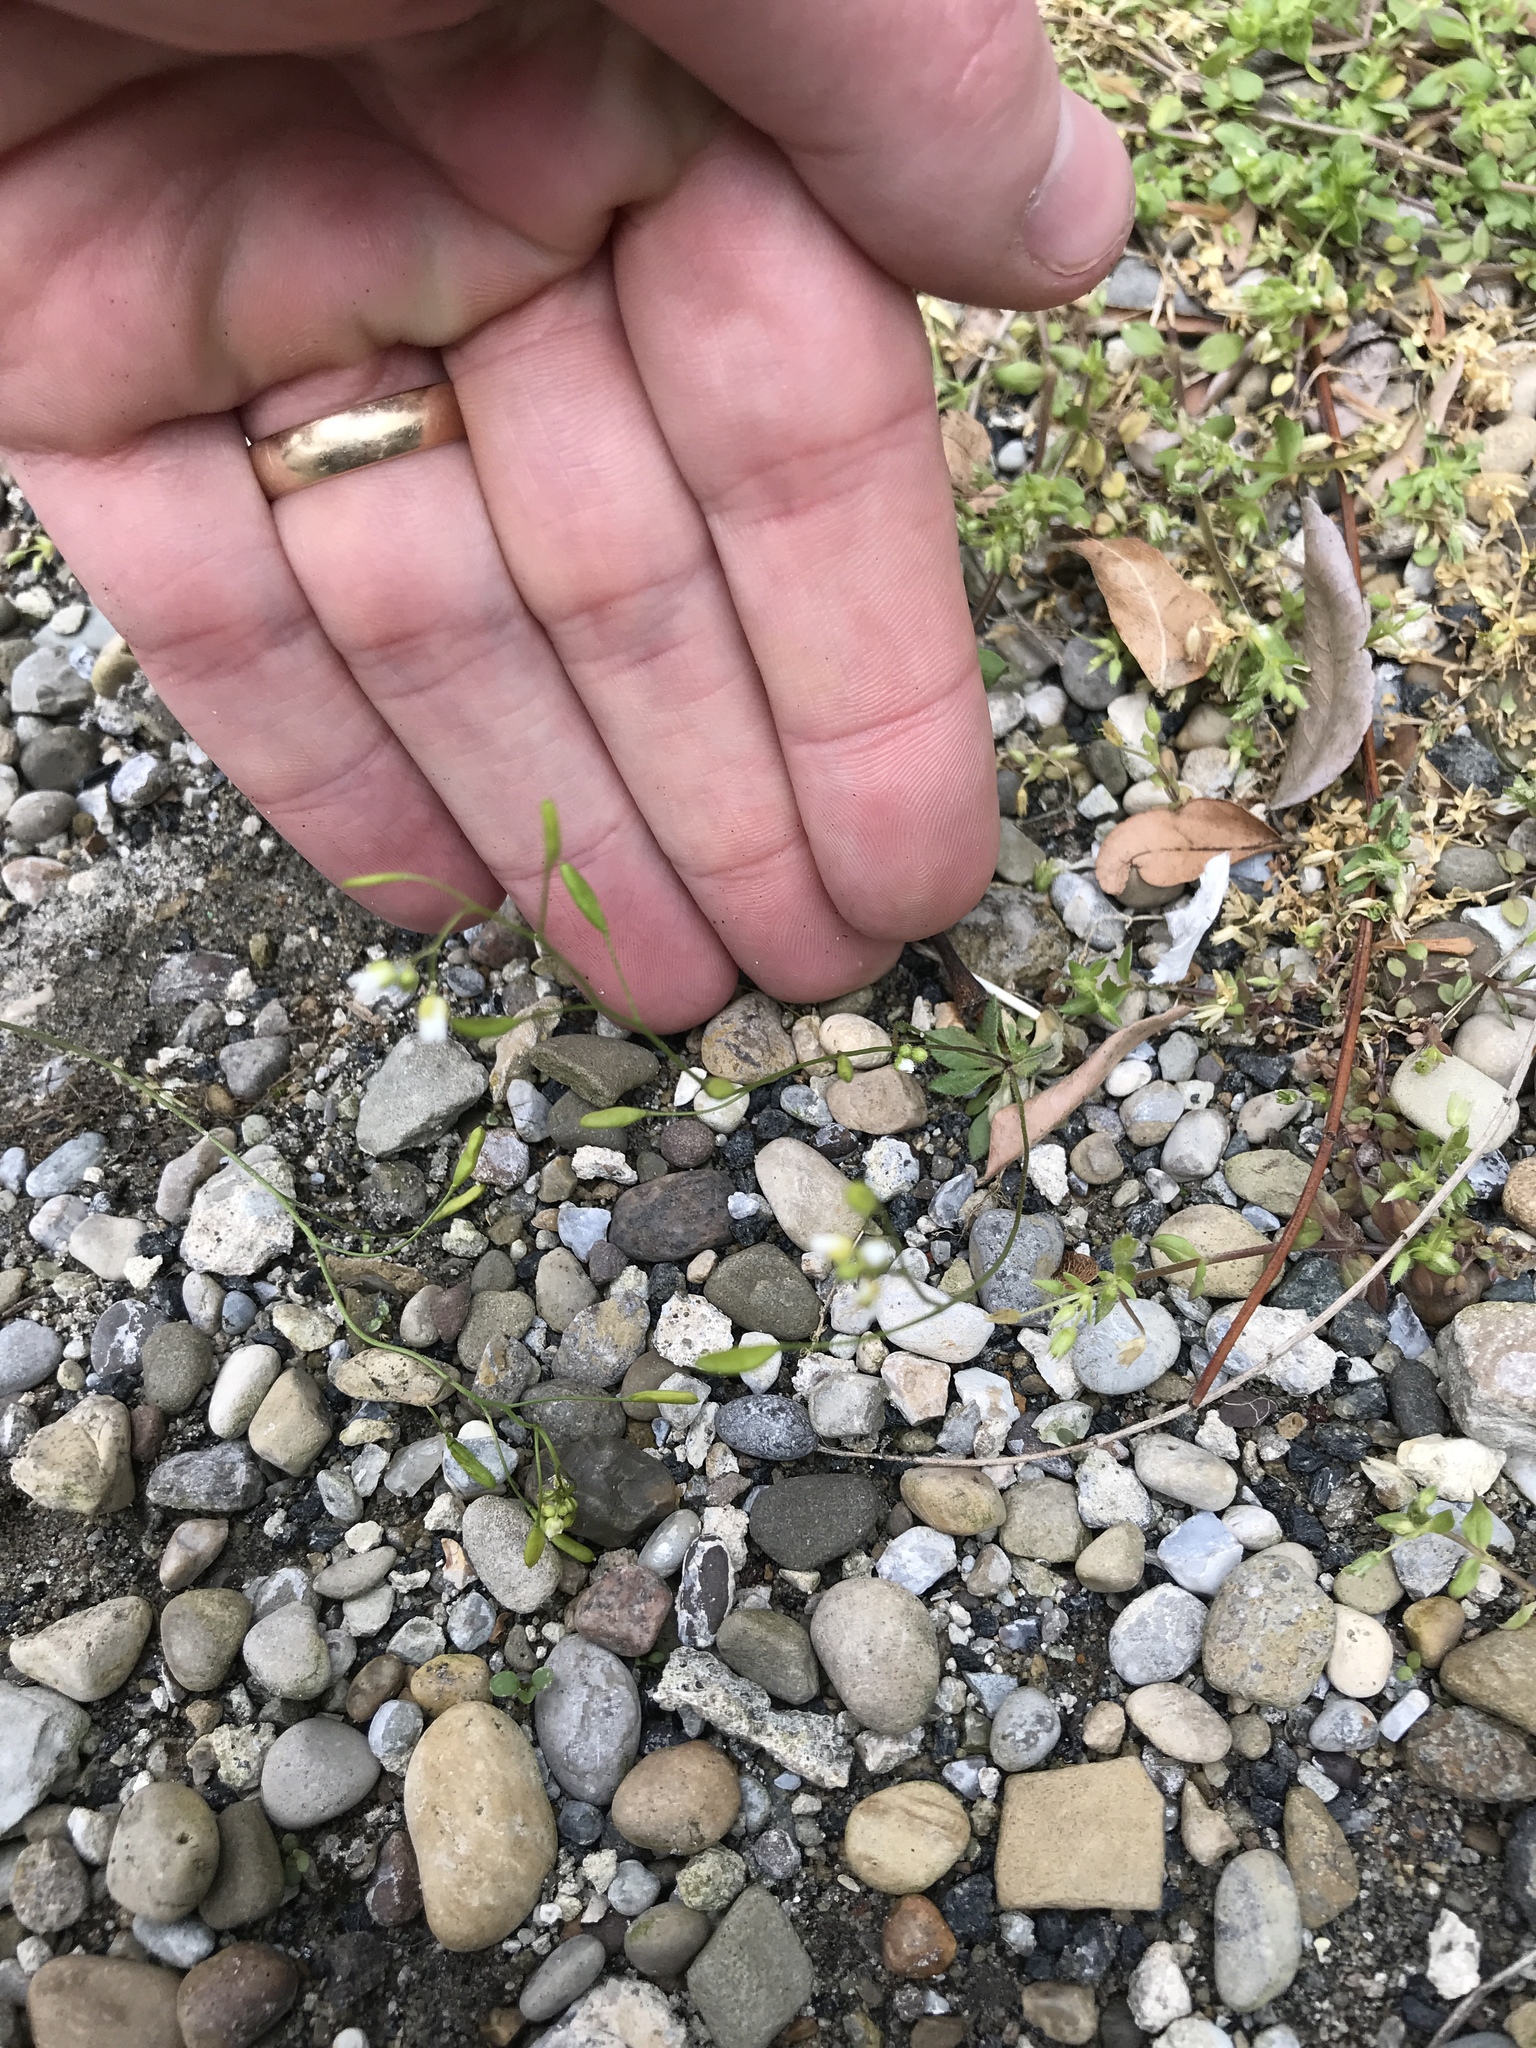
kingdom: Plantae
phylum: Tracheophyta
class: Magnoliopsida
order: Brassicales
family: Brassicaceae
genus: Draba
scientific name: Draba verna
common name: Spring draba
